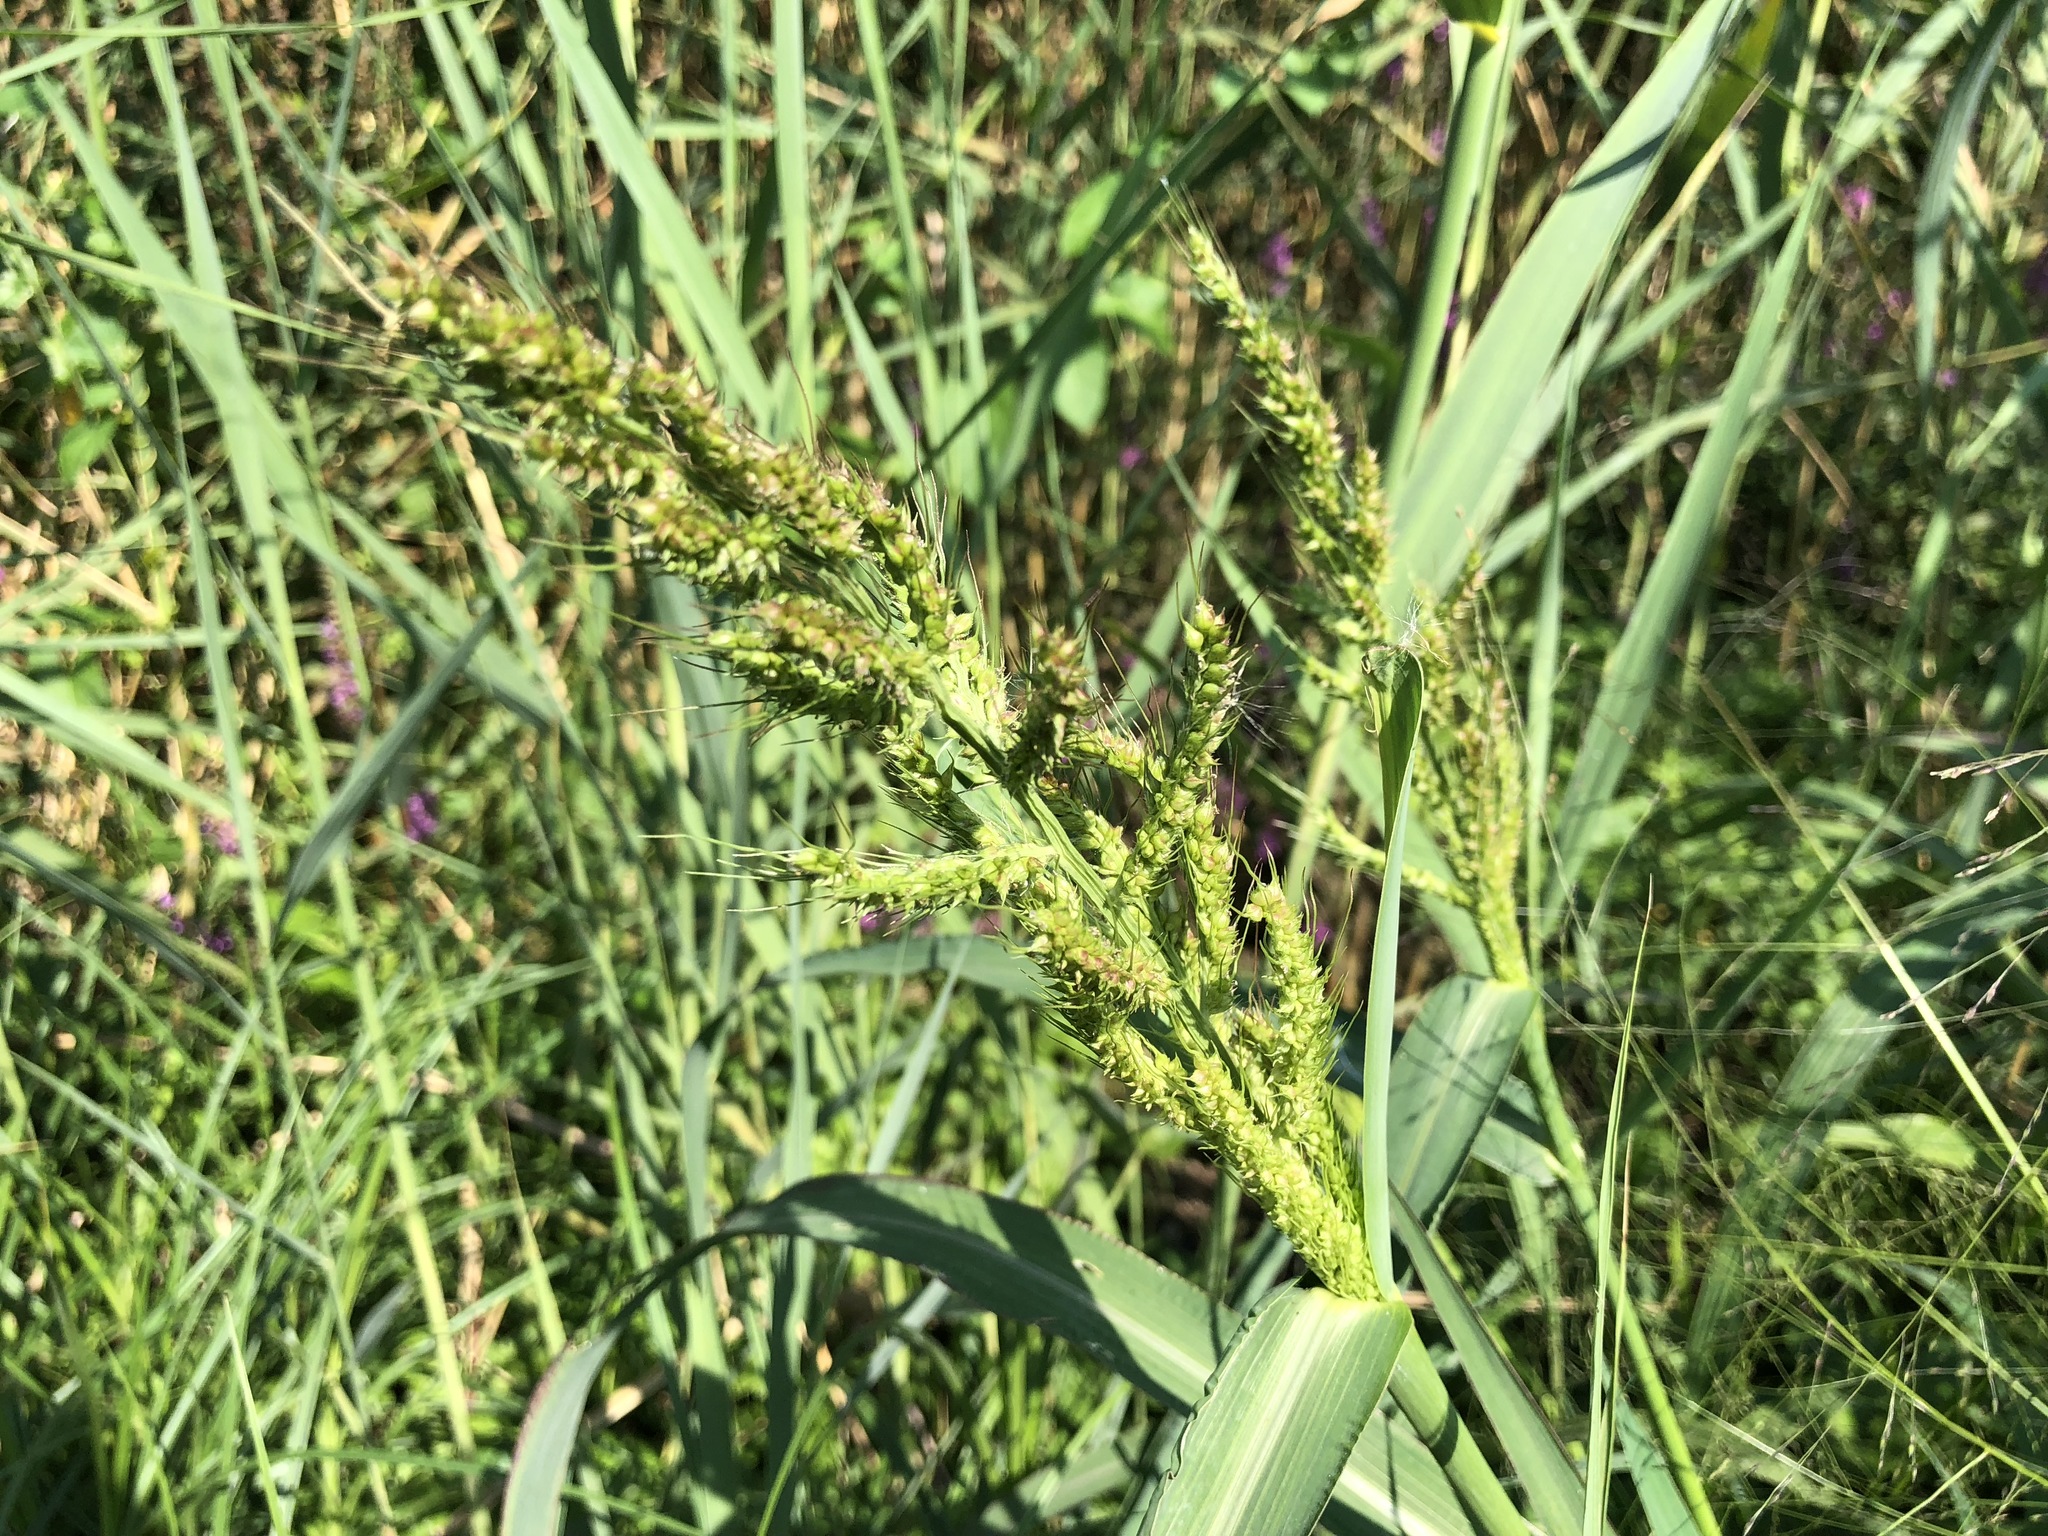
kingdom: Plantae
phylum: Tracheophyta
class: Liliopsida
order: Poales
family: Poaceae
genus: Echinochloa
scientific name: Echinochloa crus-galli
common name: Cockspur
